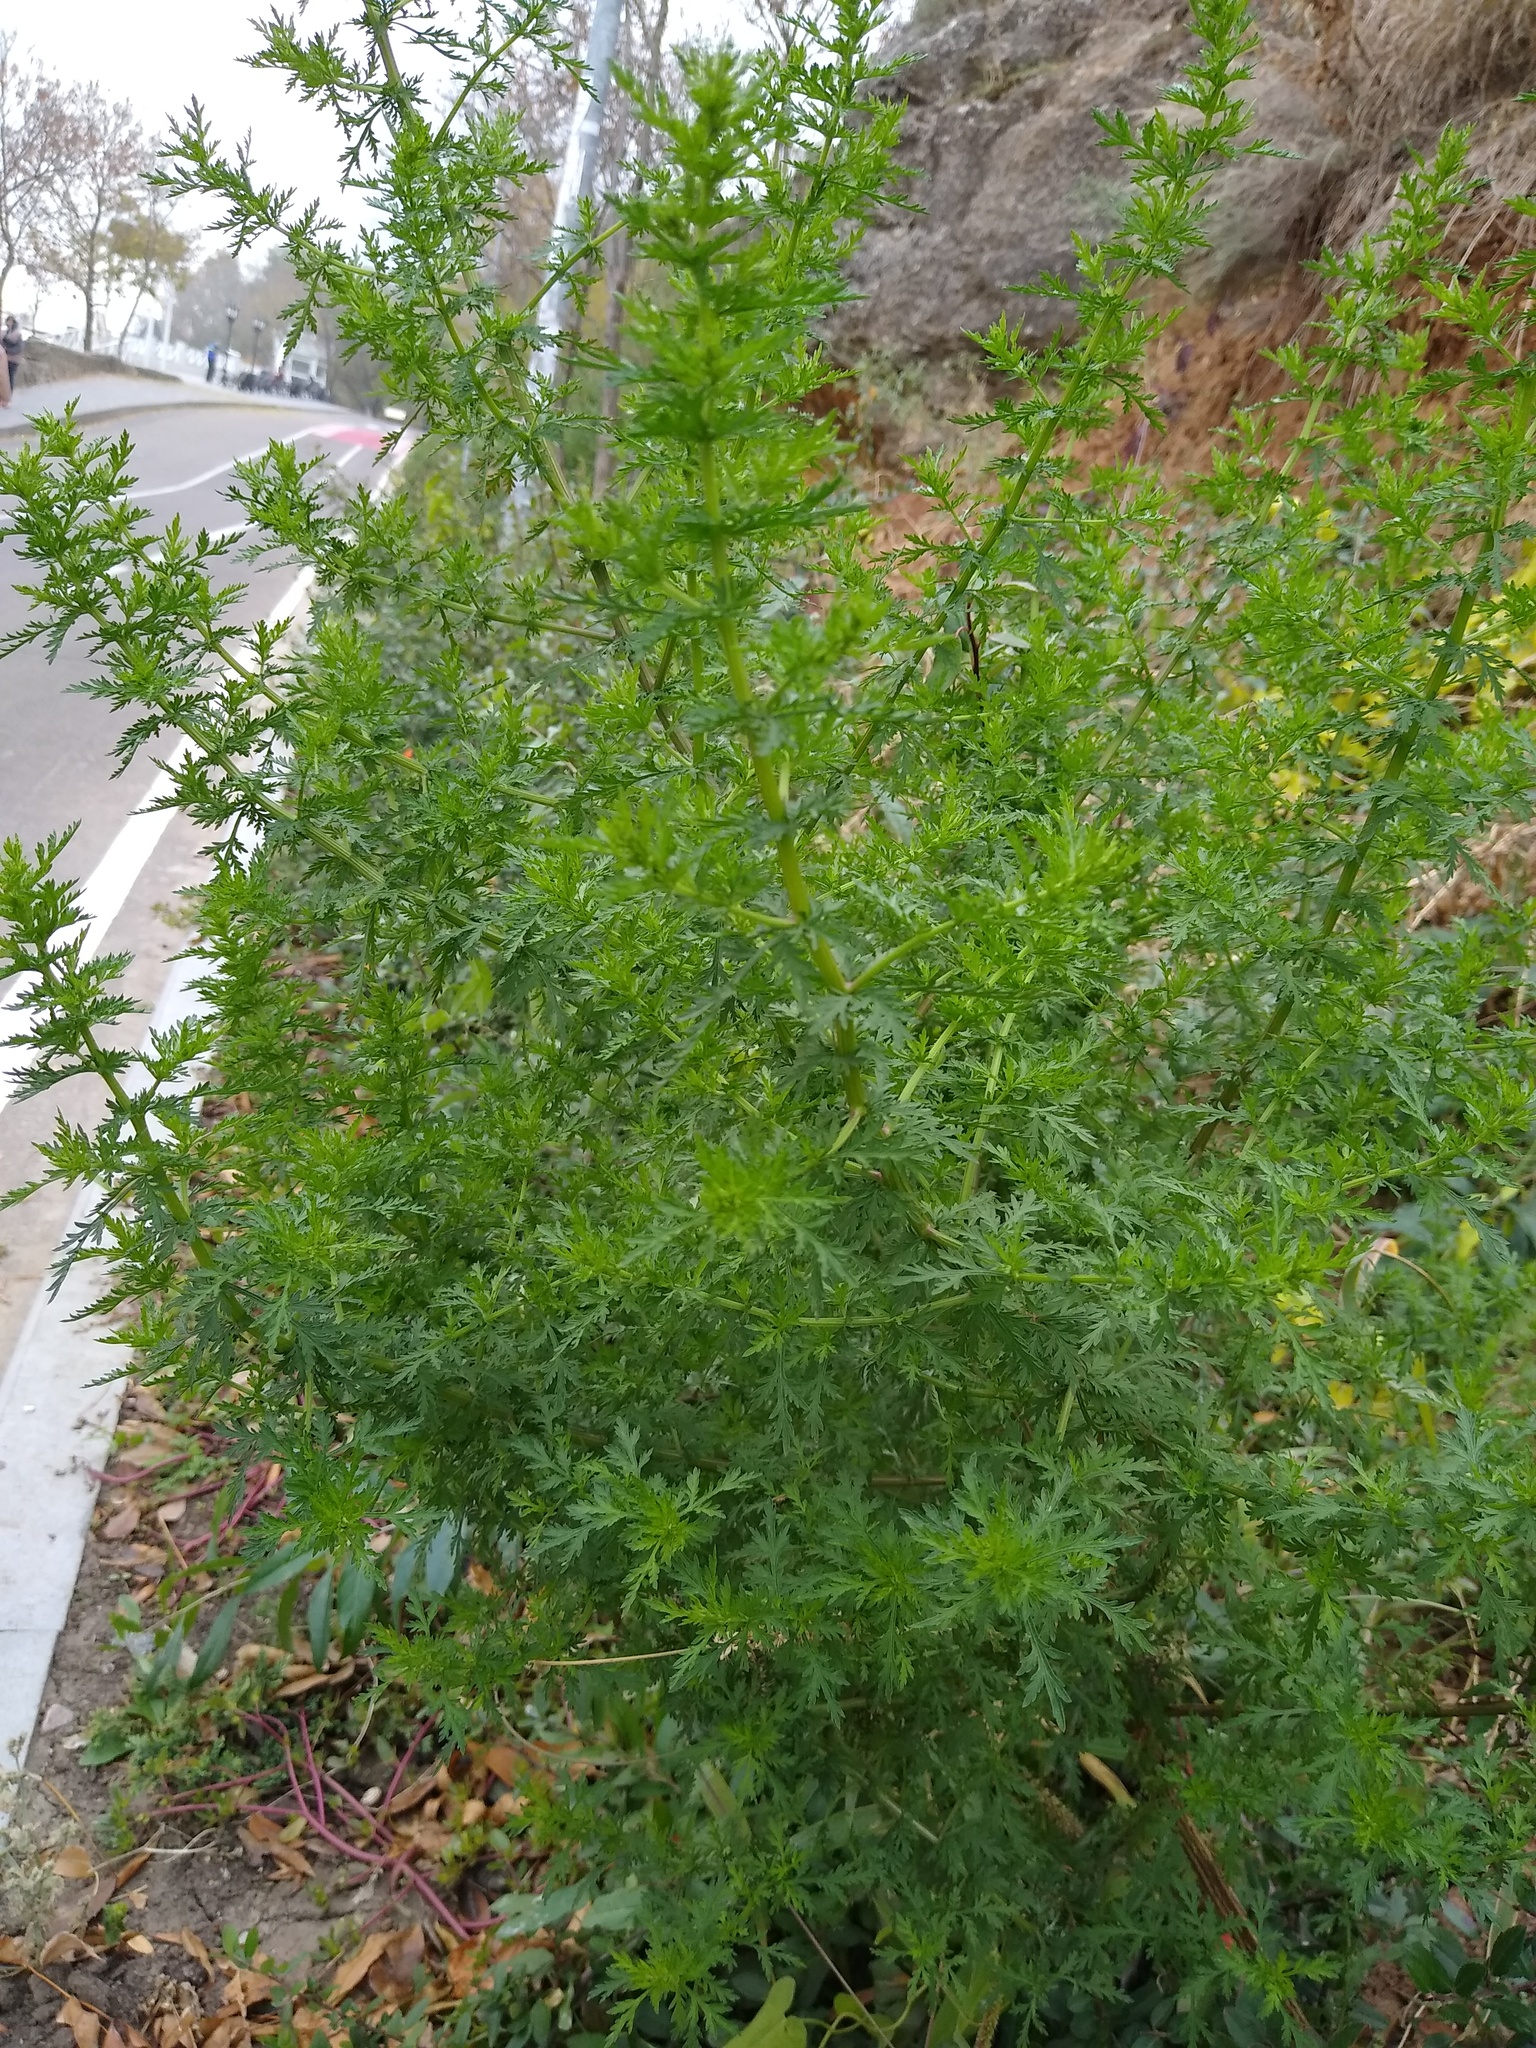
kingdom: Plantae
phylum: Tracheophyta
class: Magnoliopsida
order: Asterales
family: Asteraceae
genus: Artemisia
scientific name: Artemisia annua
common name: Sweet sagewort
